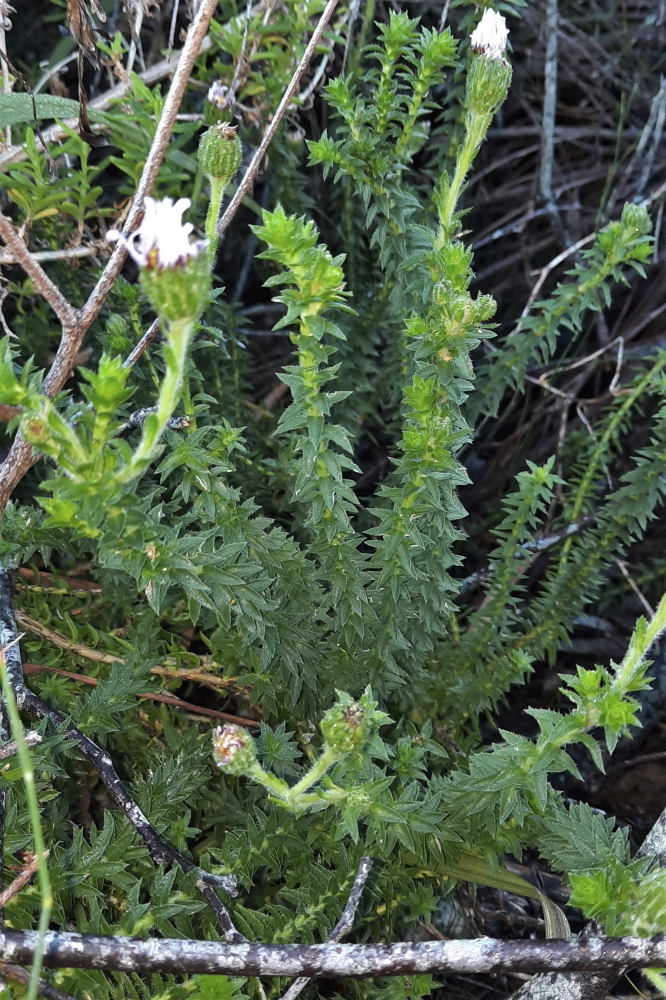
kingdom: Plantae
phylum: Tracheophyta
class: Magnoliopsida
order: Asterales
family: Asteraceae
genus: Felicia
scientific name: Felicia echinata
